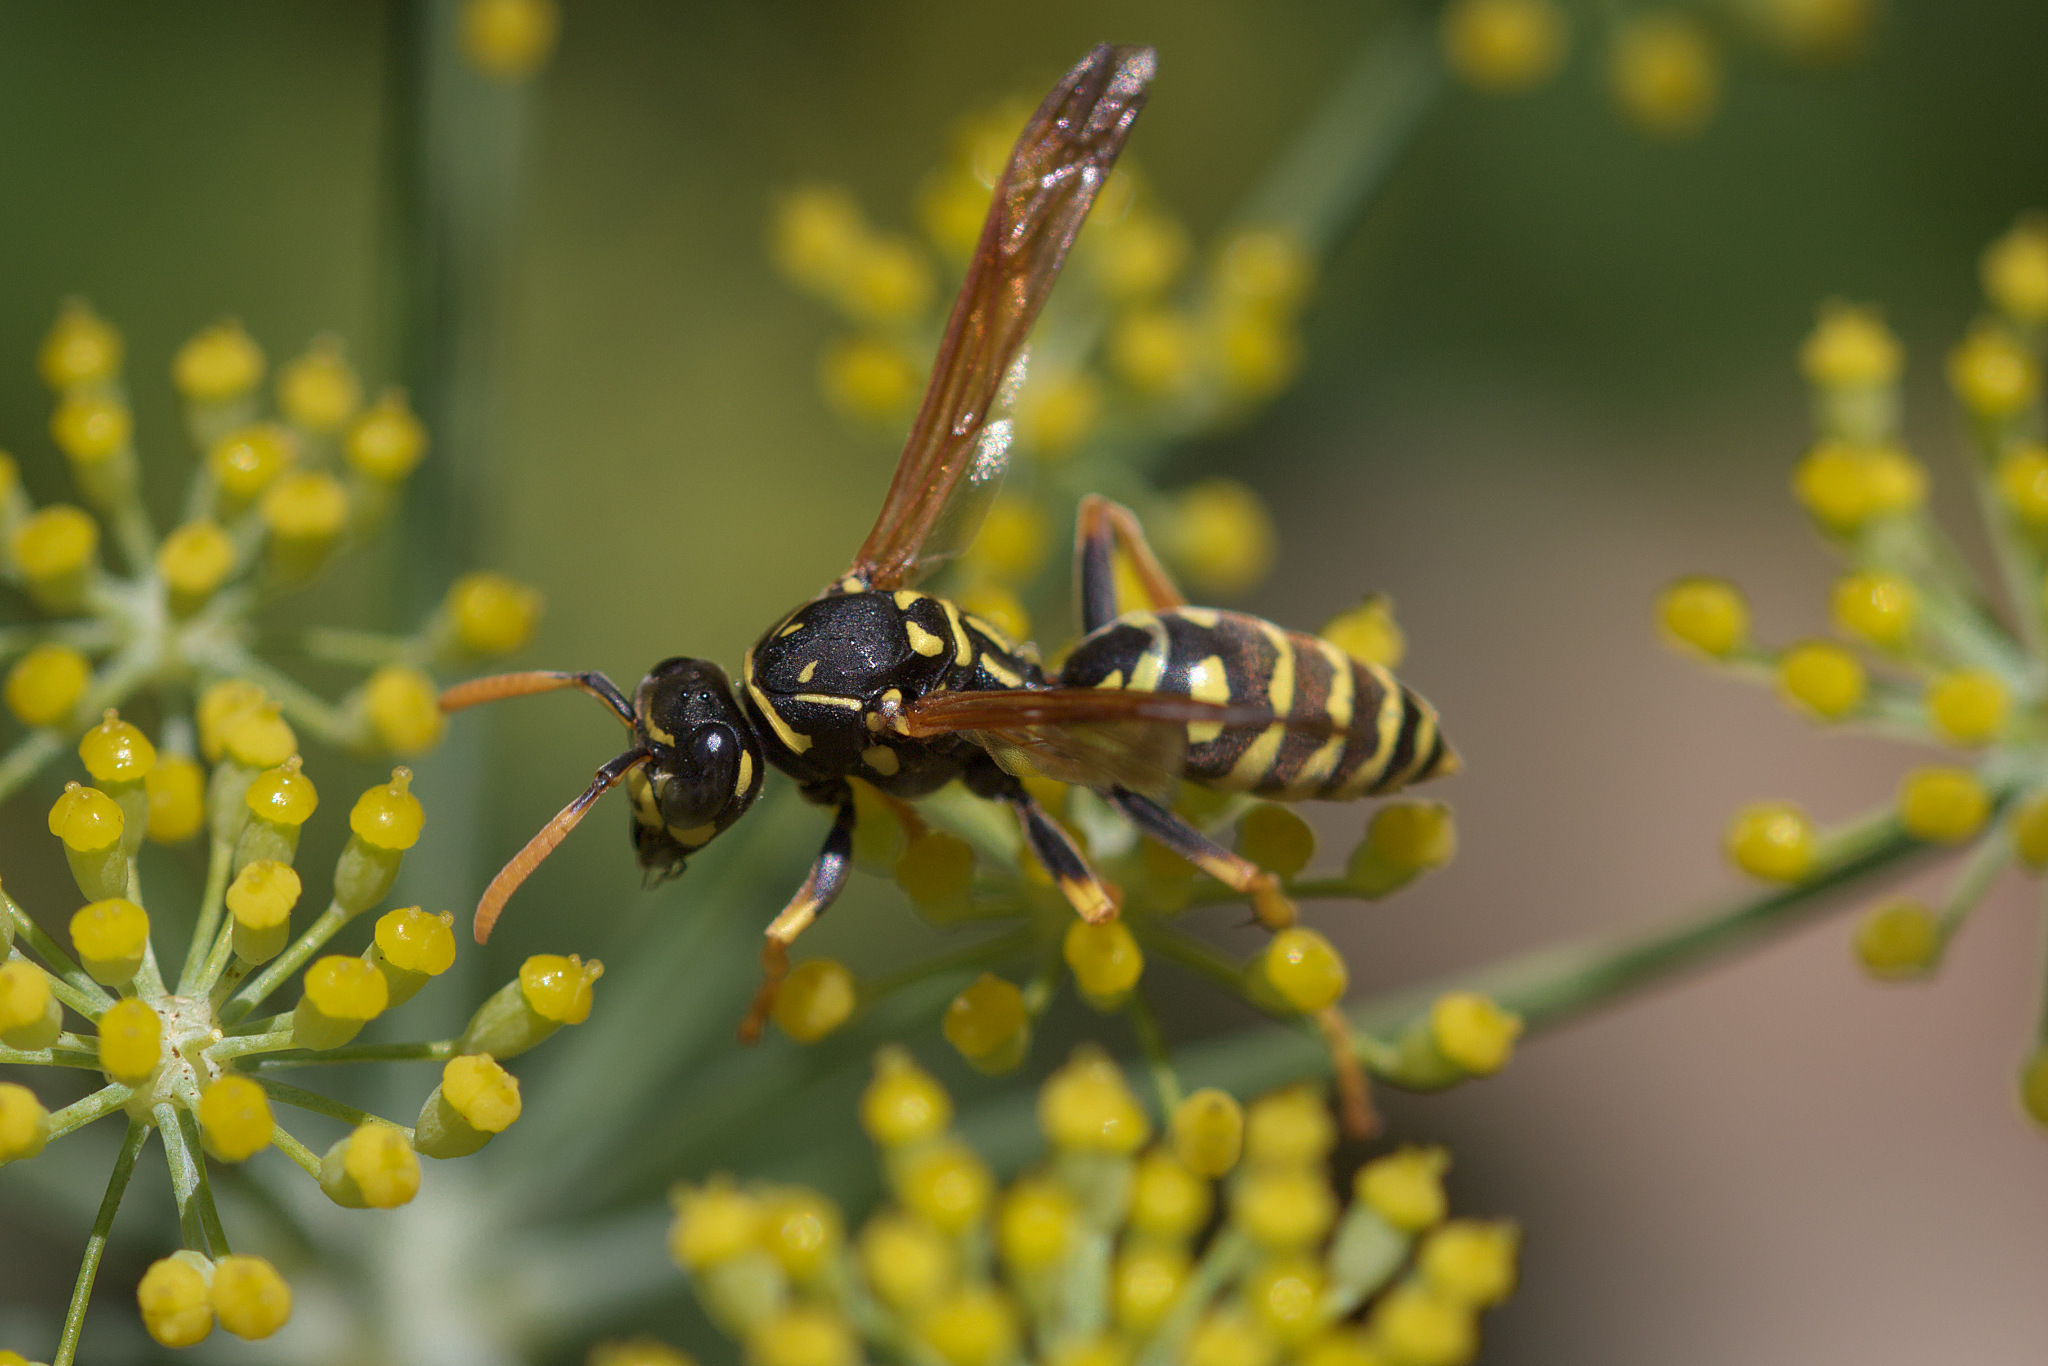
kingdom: Animalia
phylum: Arthropoda
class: Insecta
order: Hymenoptera
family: Eumenidae
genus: Polistes
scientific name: Polistes dominula
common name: Paper wasp
